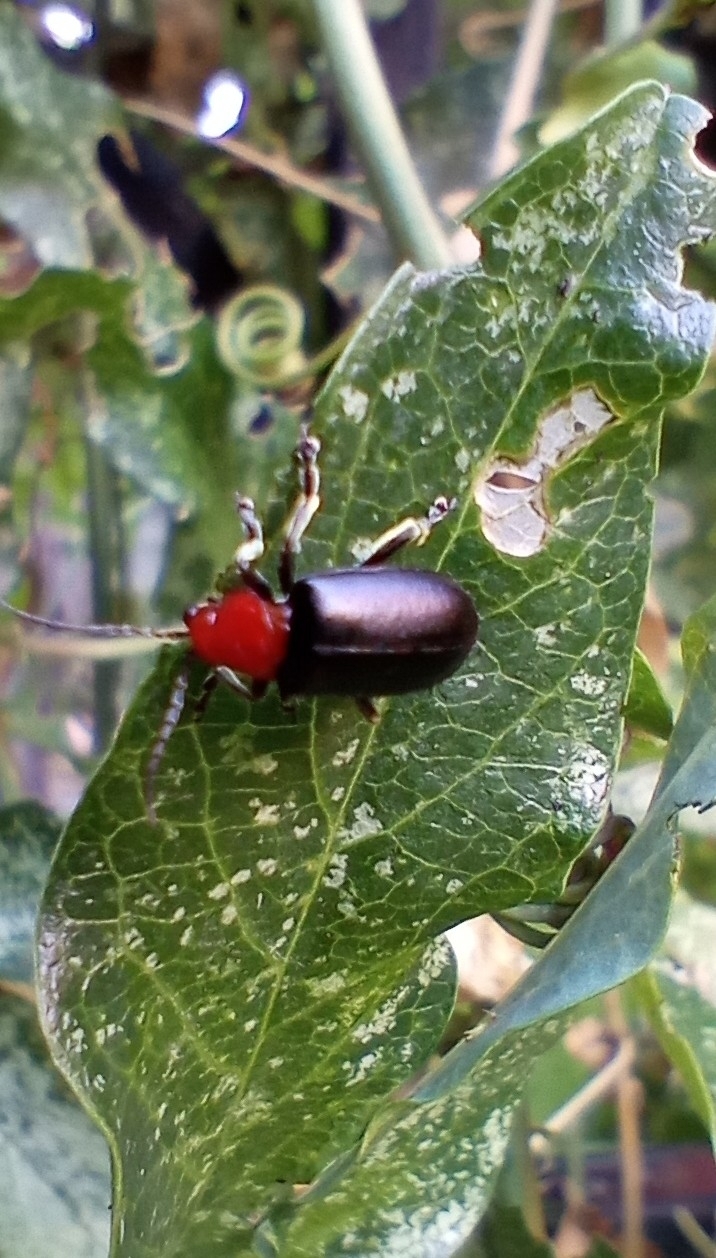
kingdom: Animalia
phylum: Arthropoda
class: Insecta
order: Coleoptera
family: Chrysomelidae
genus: Cacoscelis
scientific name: Cacoscelis
